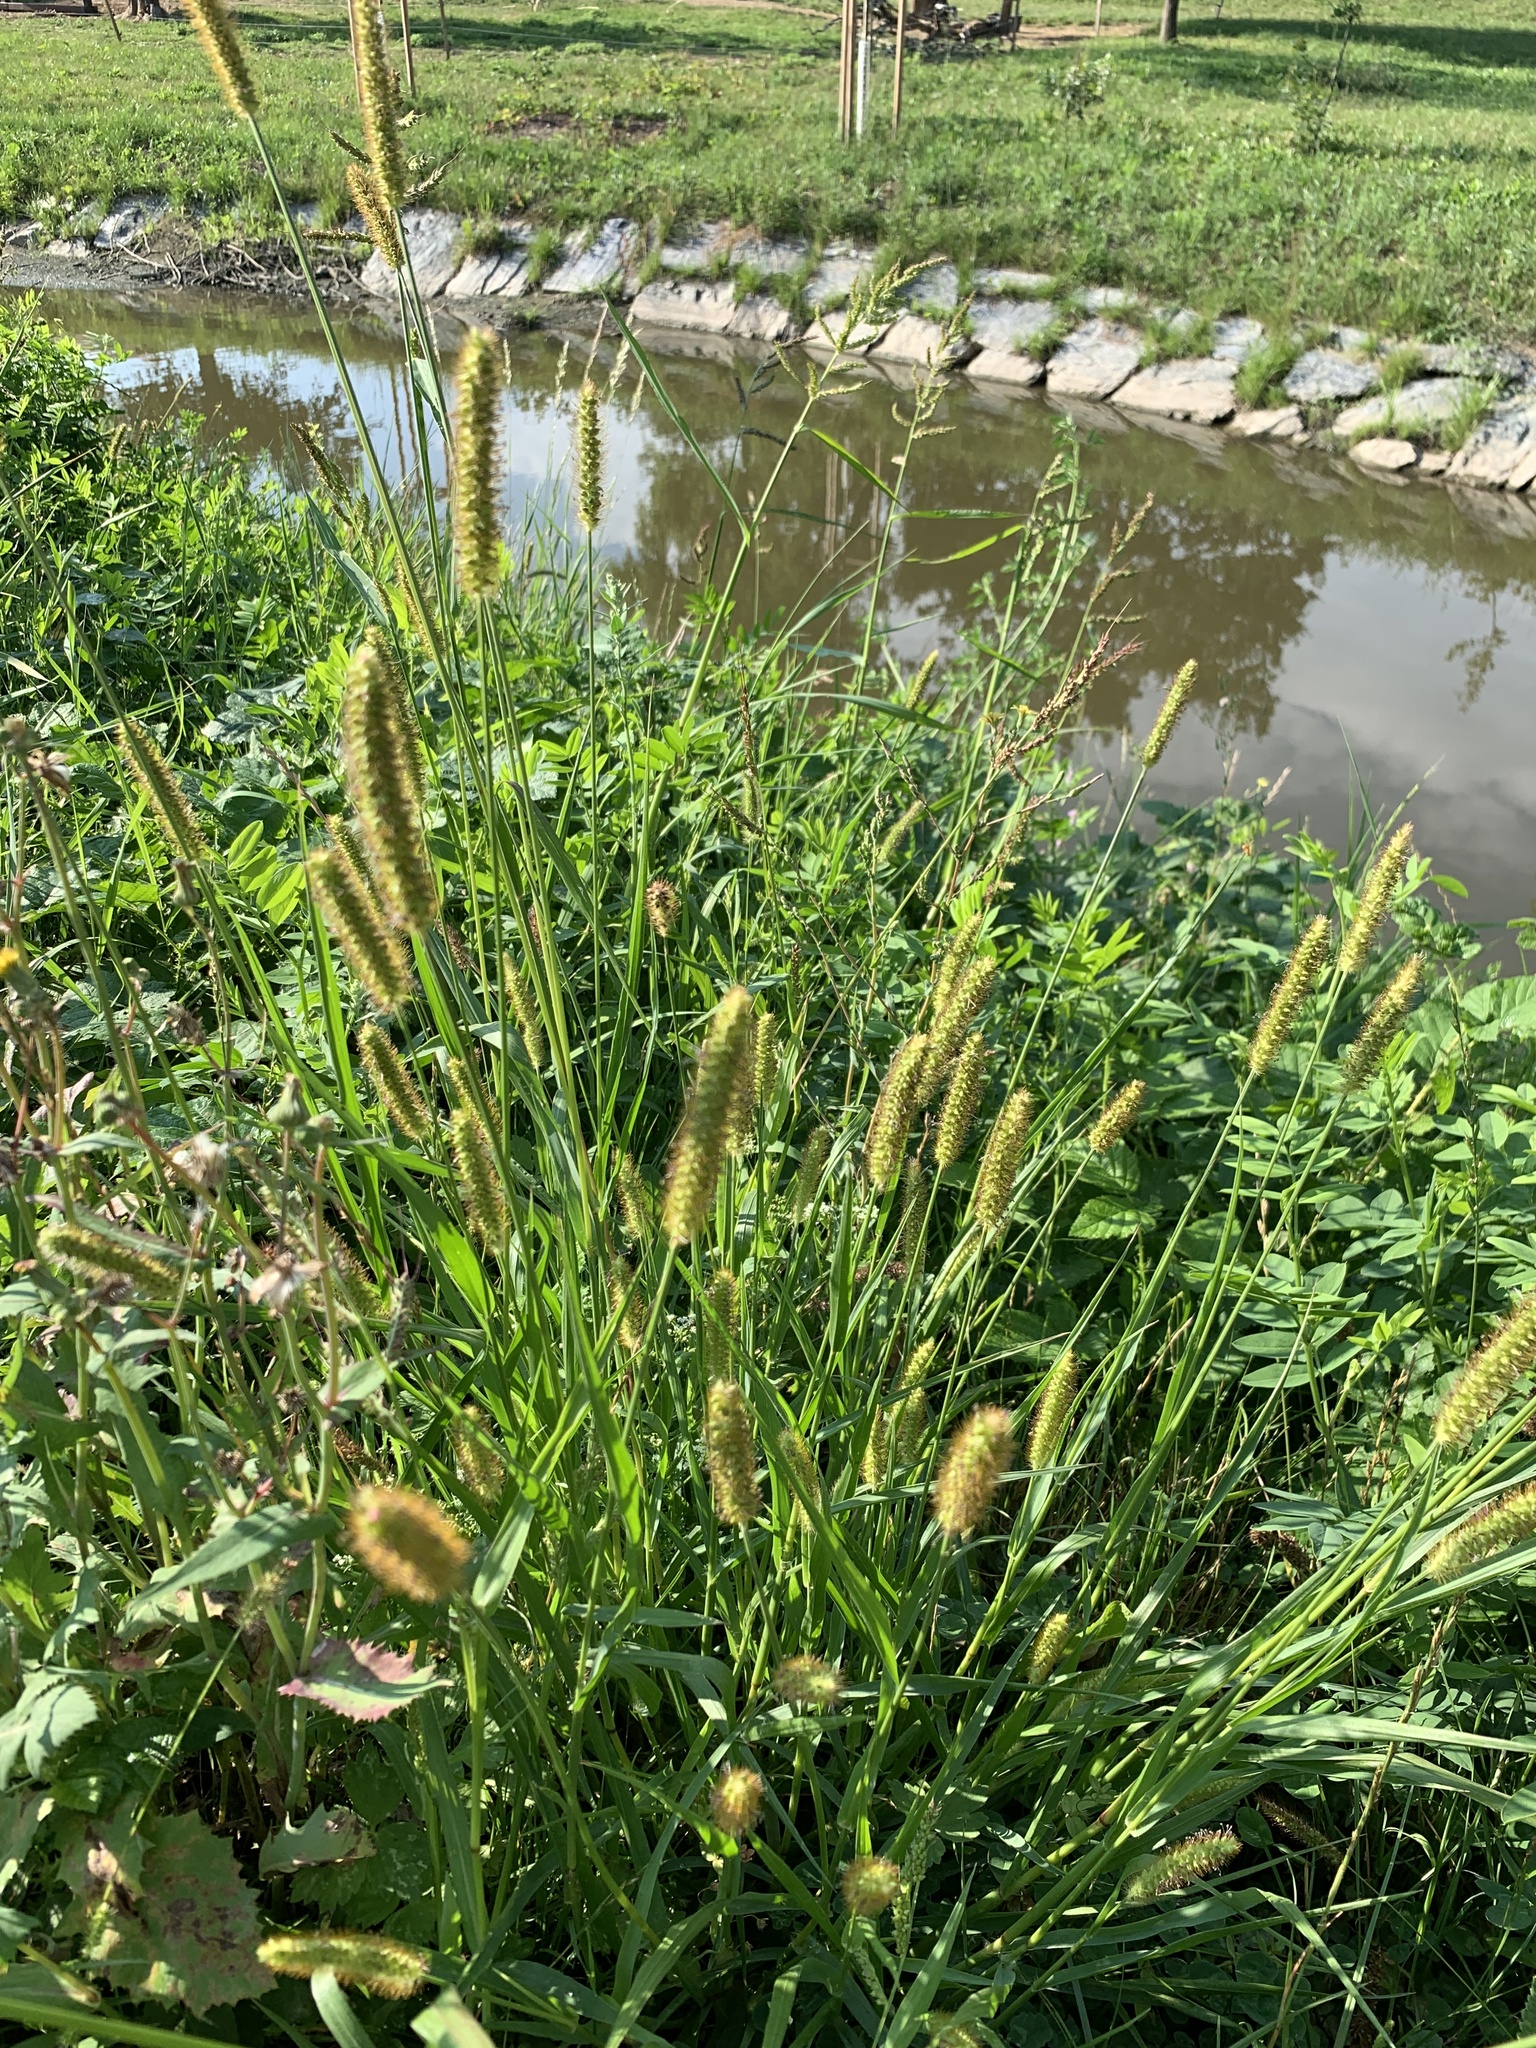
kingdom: Plantae
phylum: Tracheophyta
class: Liliopsida
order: Poales
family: Poaceae
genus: Setaria
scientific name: Setaria pumila
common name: Yellow bristle-grass
